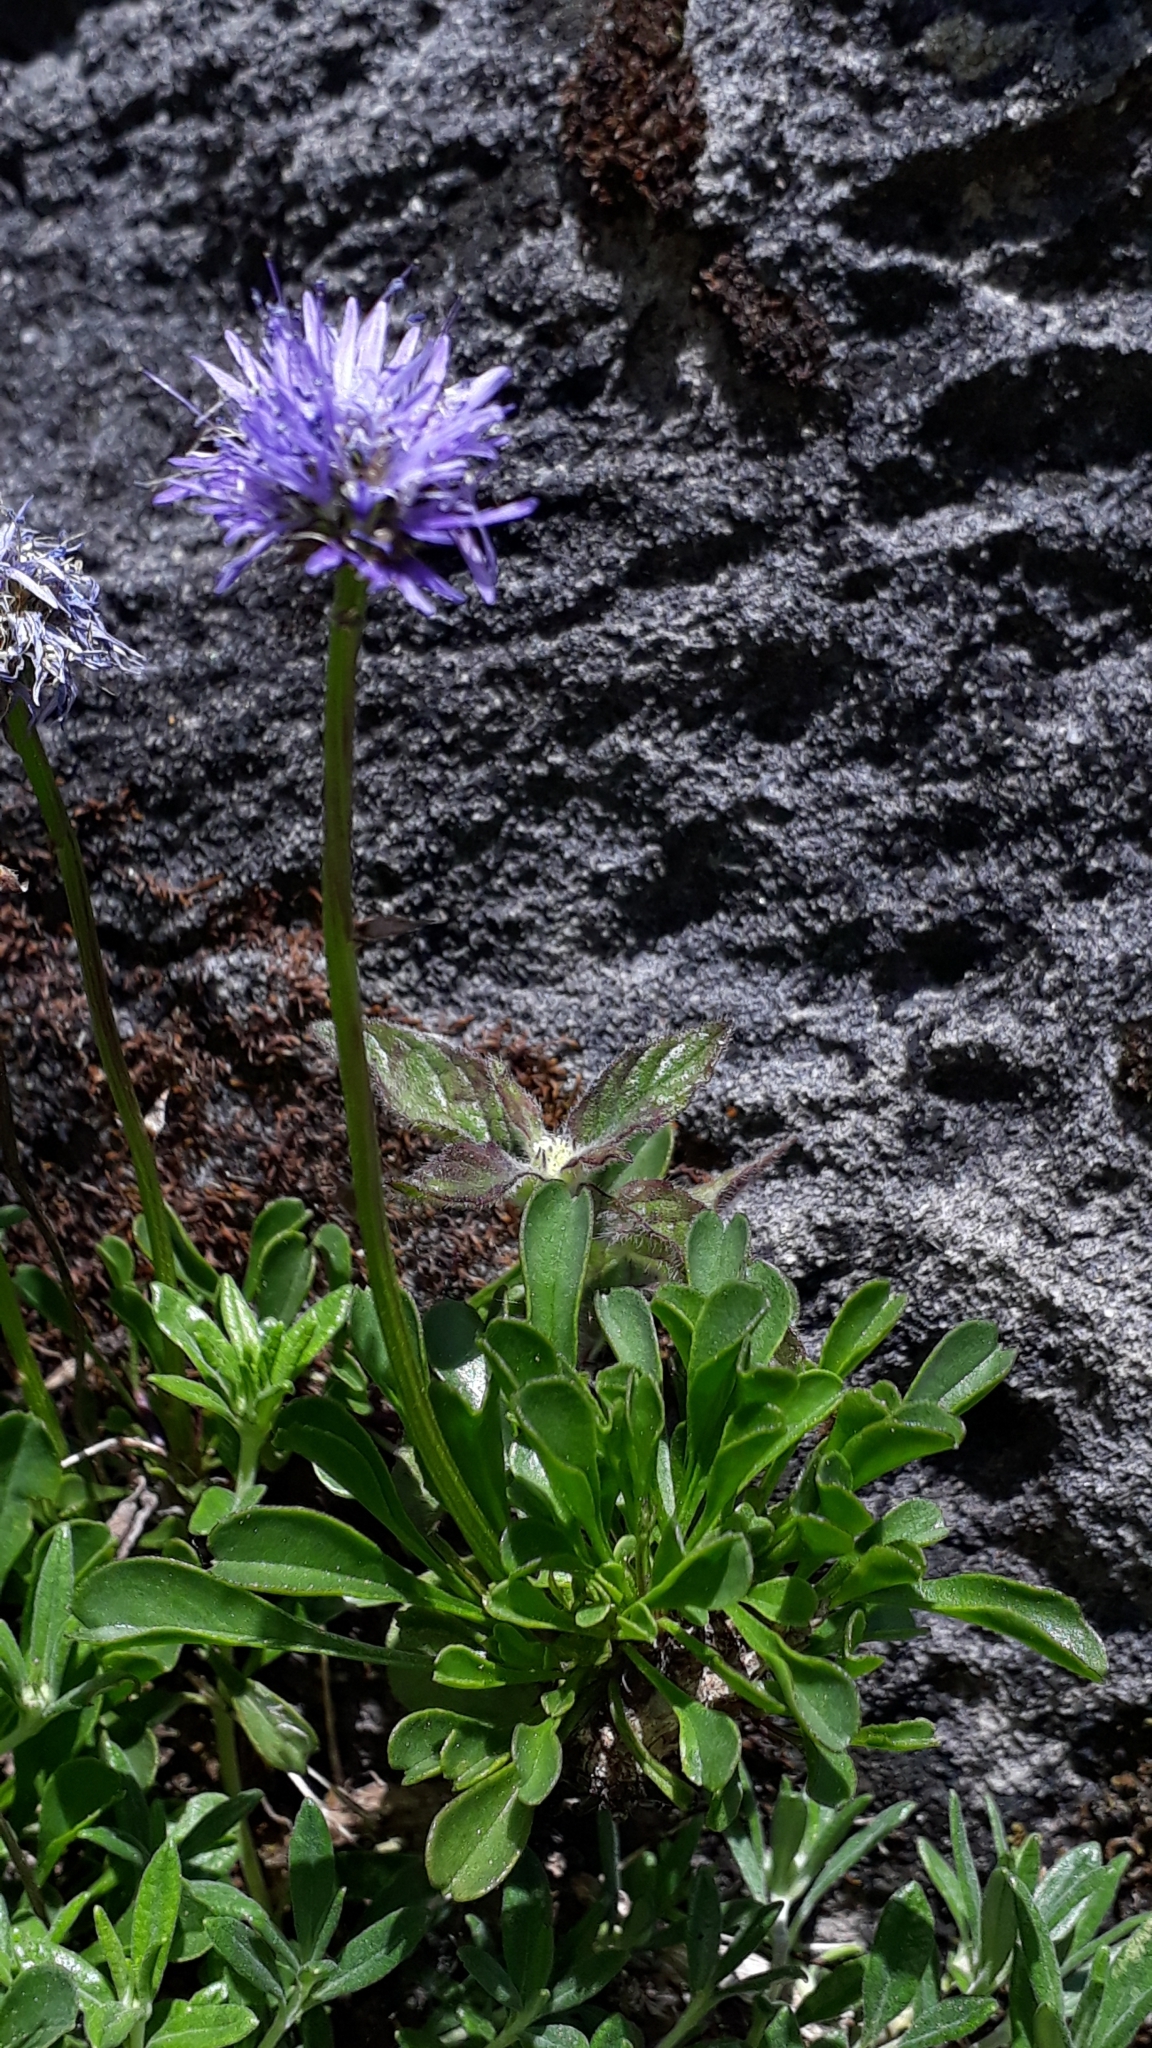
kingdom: Plantae
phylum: Tracheophyta
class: Magnoliopsida
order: Lamiales
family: Plantaginaceae
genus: Globularia
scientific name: Globularia cordifolia
